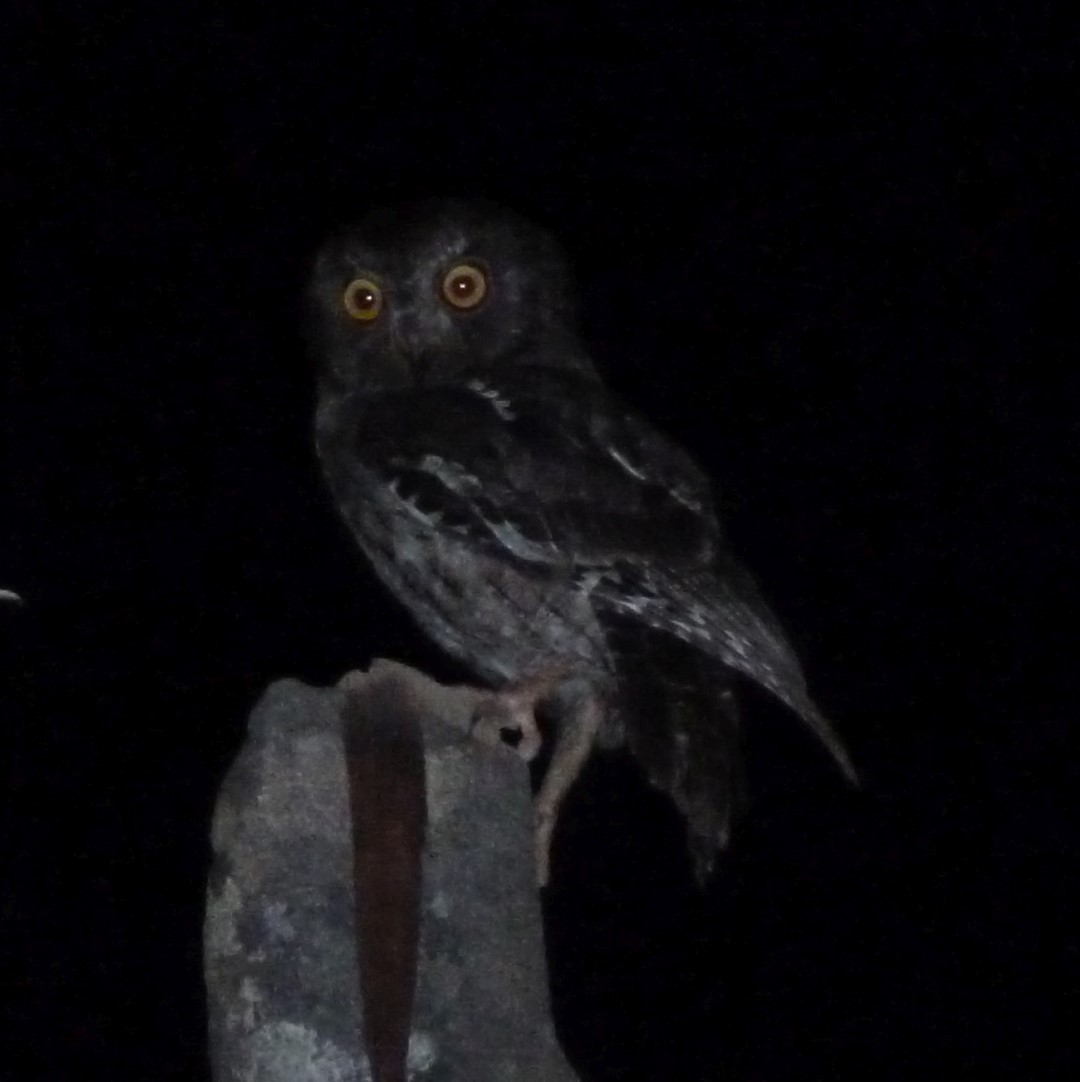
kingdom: Animalia
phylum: Chordata
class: Aves
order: Strigiformes
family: Strigidae
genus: Otus
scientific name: Otus rutilus
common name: Rainforest scops owl
